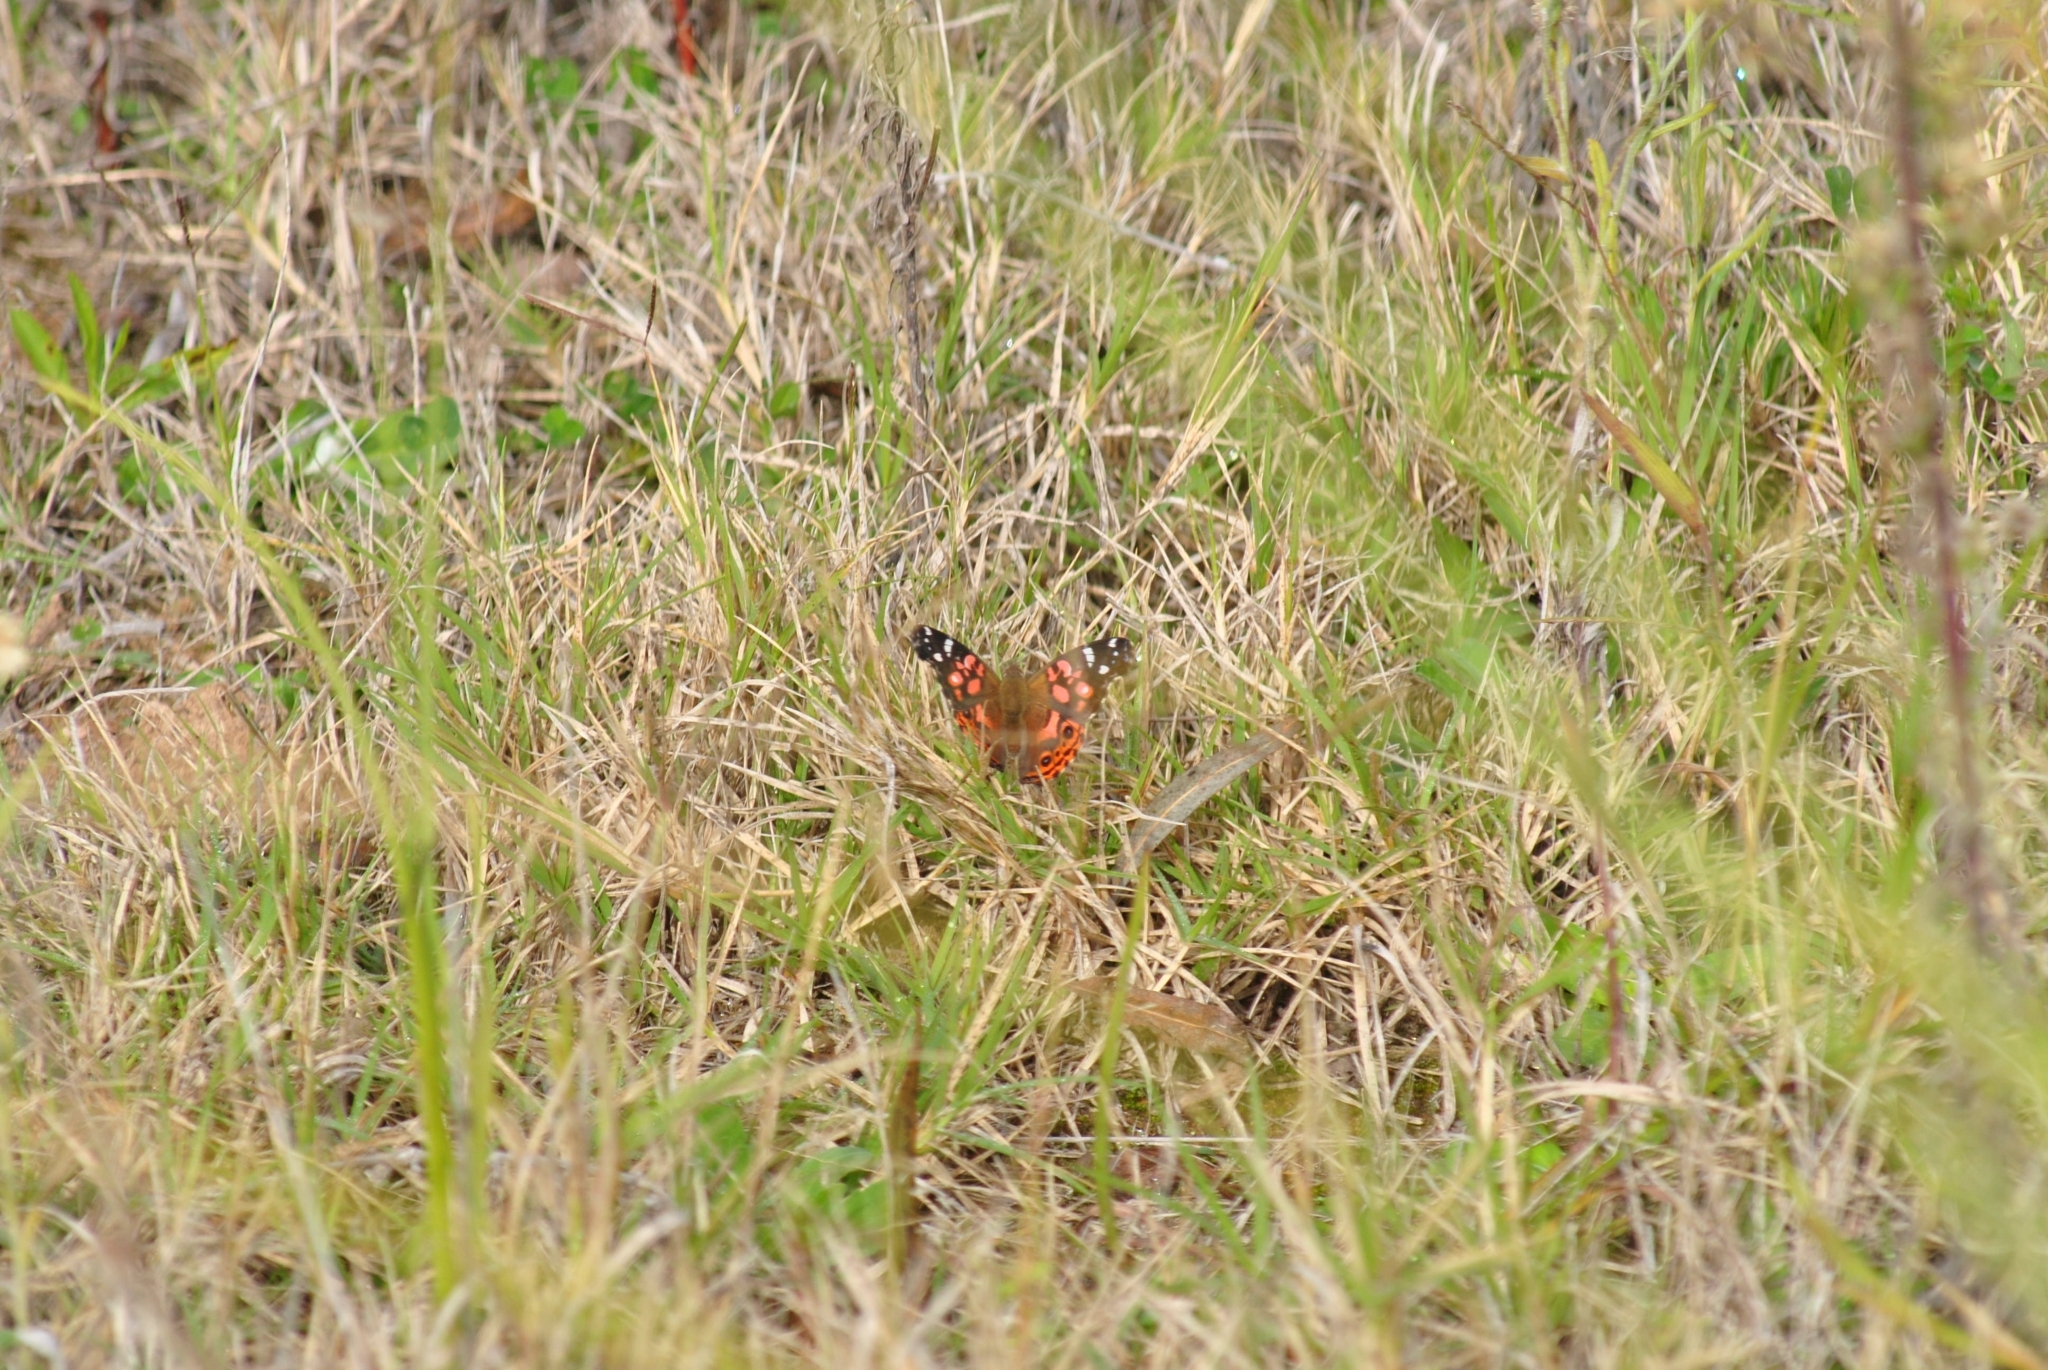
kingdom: Animalia
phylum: Arthropoda
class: Insecta
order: Lepidoptera
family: Nymphalidae
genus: Vanessa
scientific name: Vanessa braziliensis
